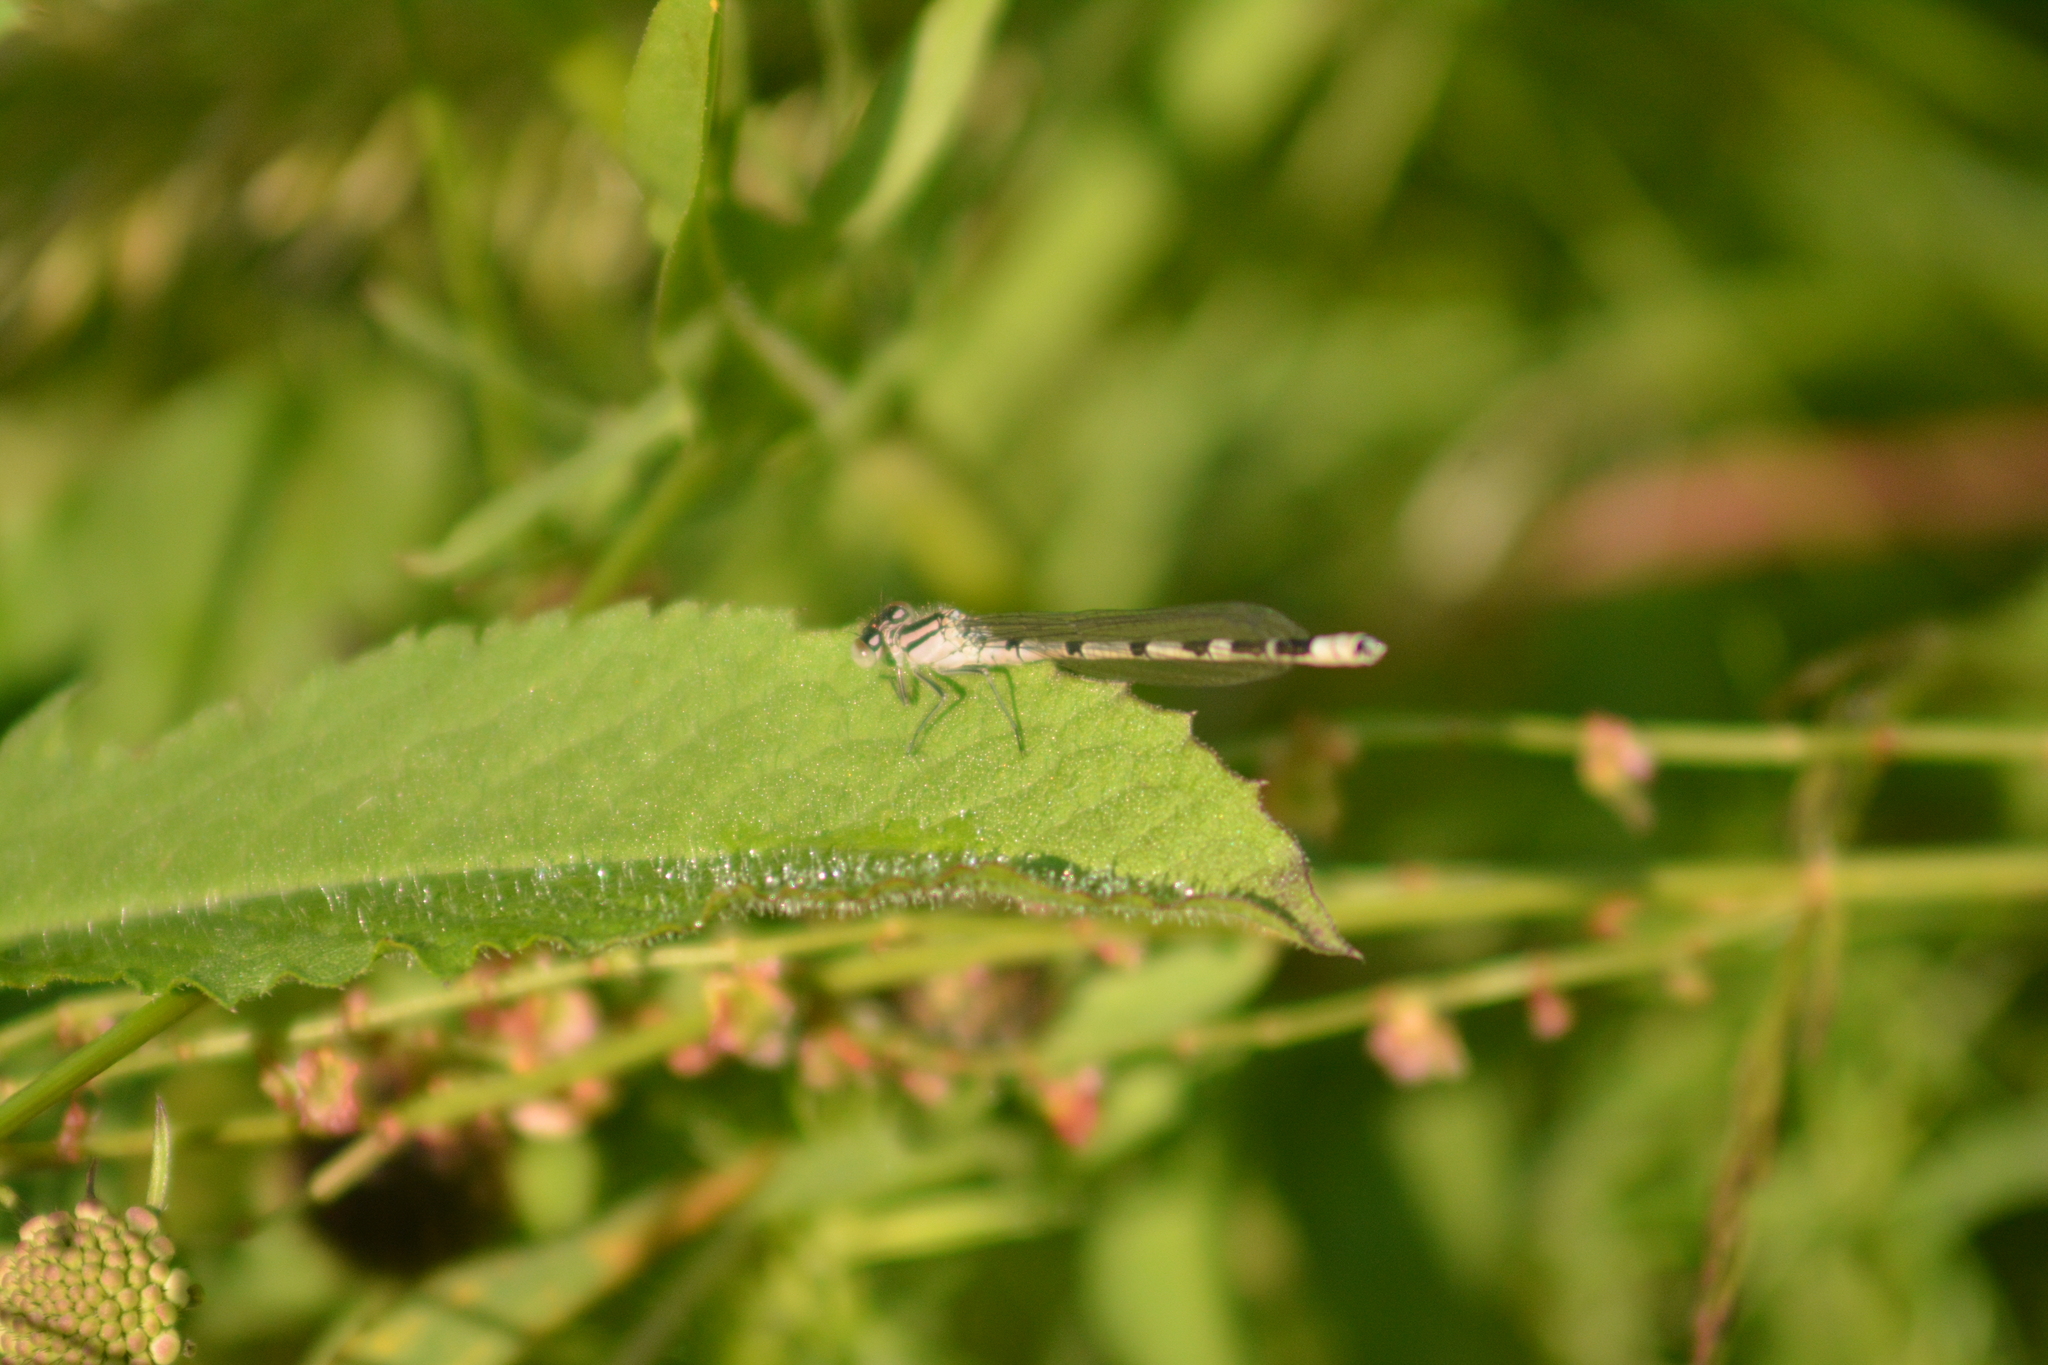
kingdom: Animalia
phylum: Arthropoda
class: Insecta
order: Odonata
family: Coenagrionidae
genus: Enallagma
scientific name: Enallagma cyathigerum
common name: Common blue damselfly
